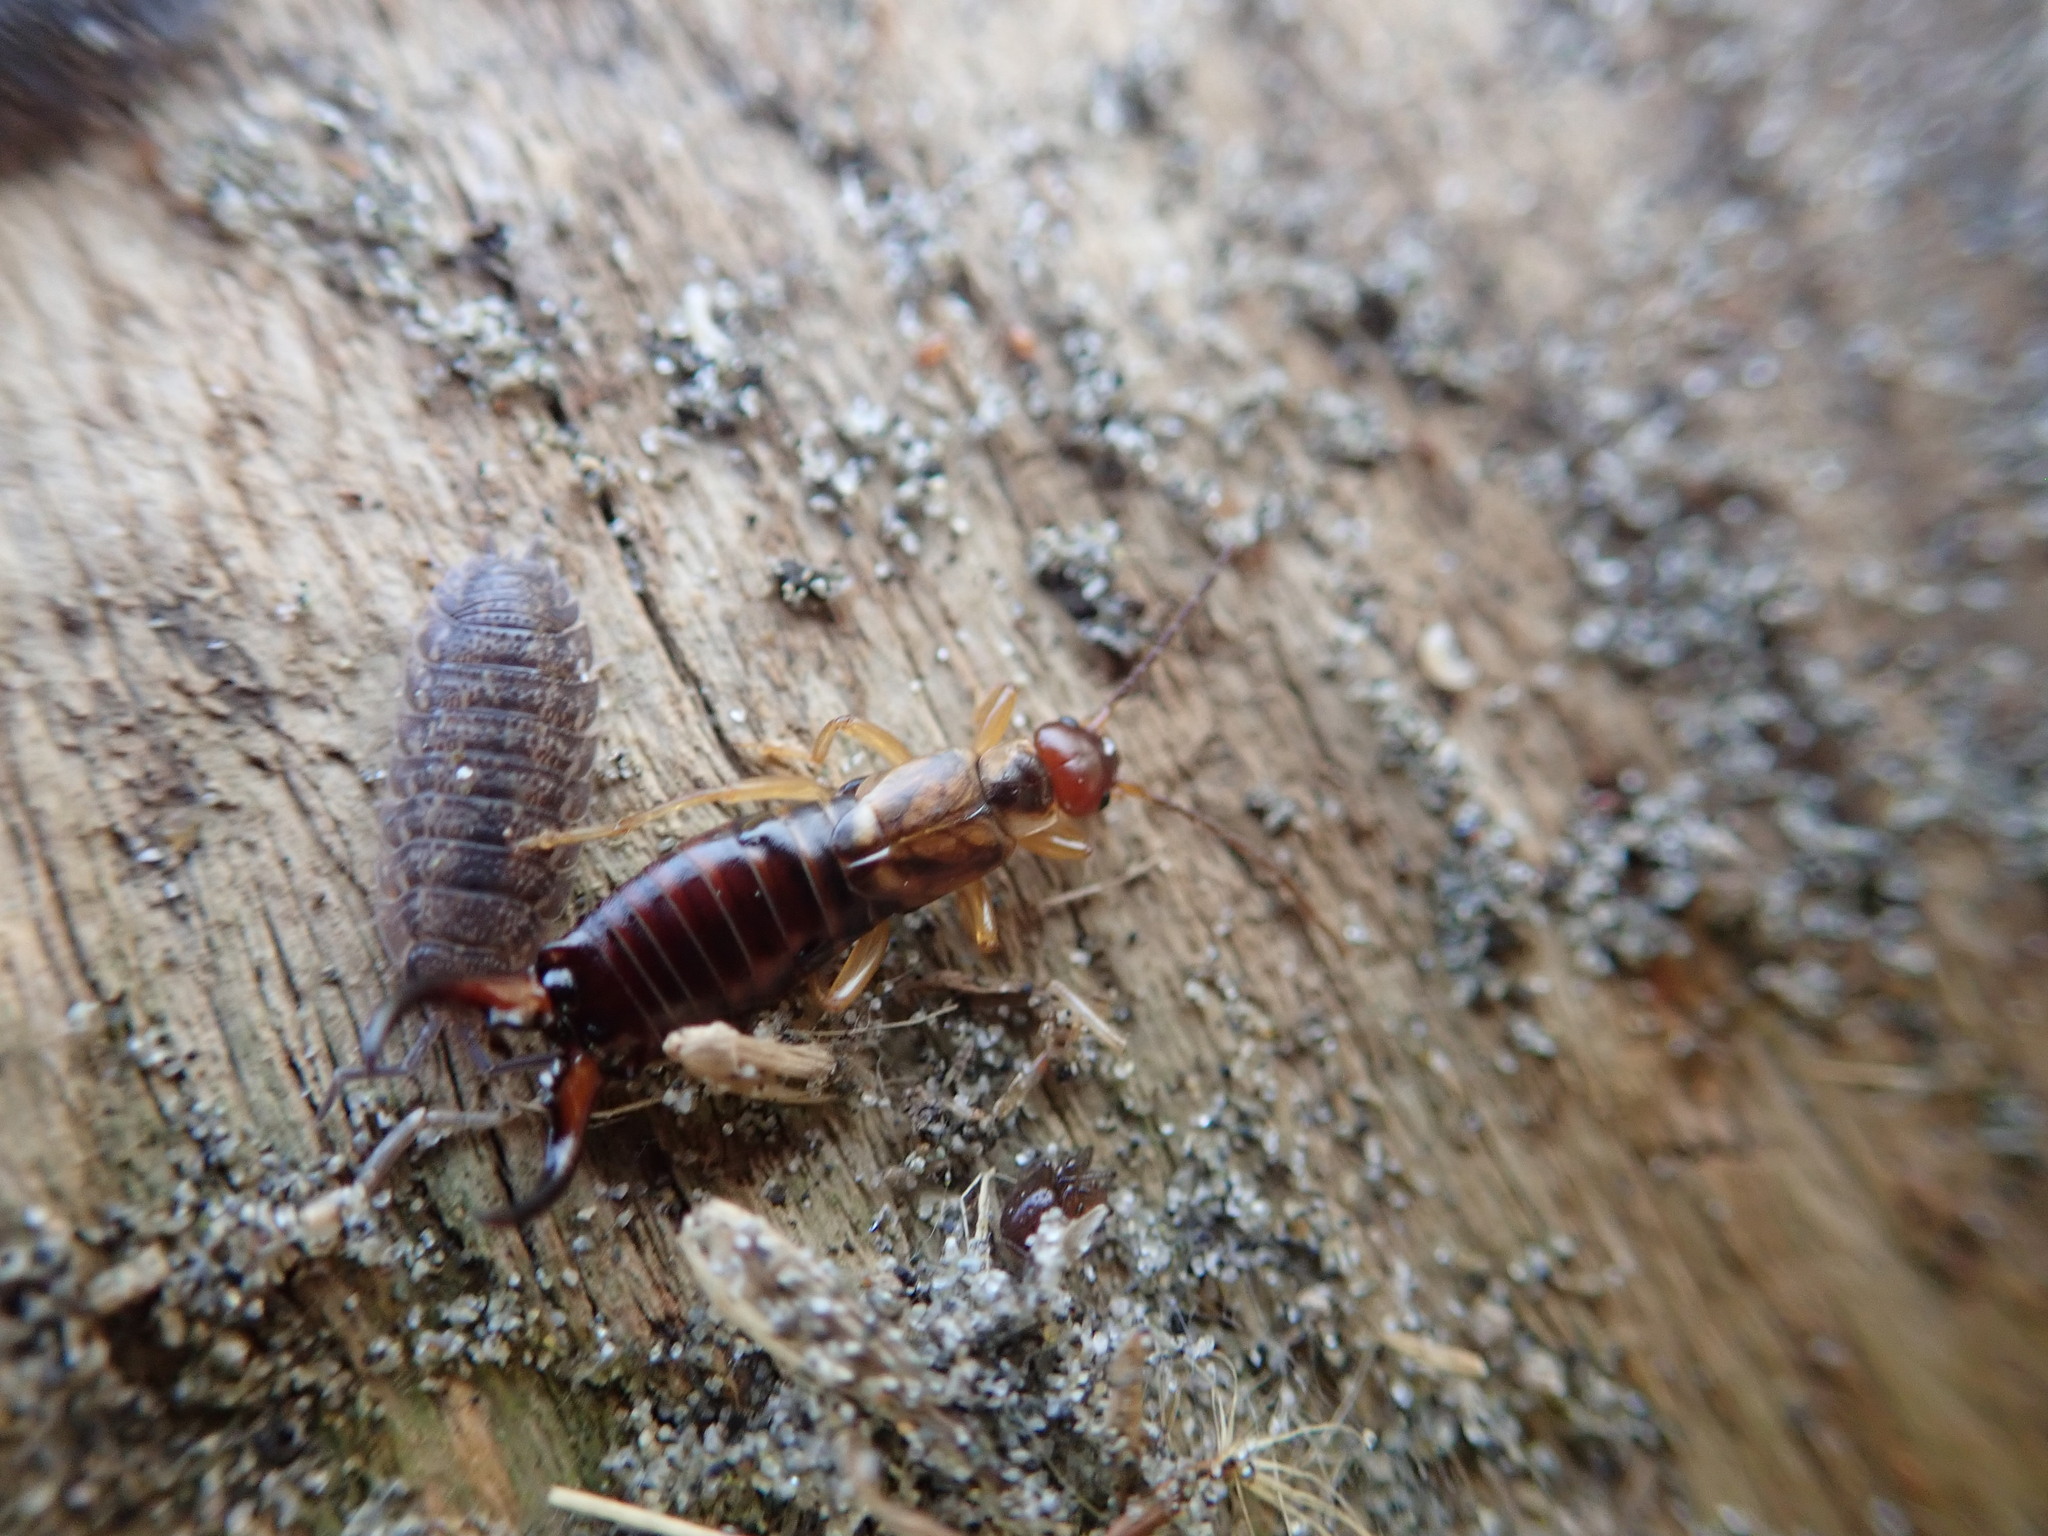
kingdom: Animalia
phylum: Arthropoda
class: Insecta
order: Dermaptera
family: Forficulidae
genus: Forficula
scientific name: Forficula
